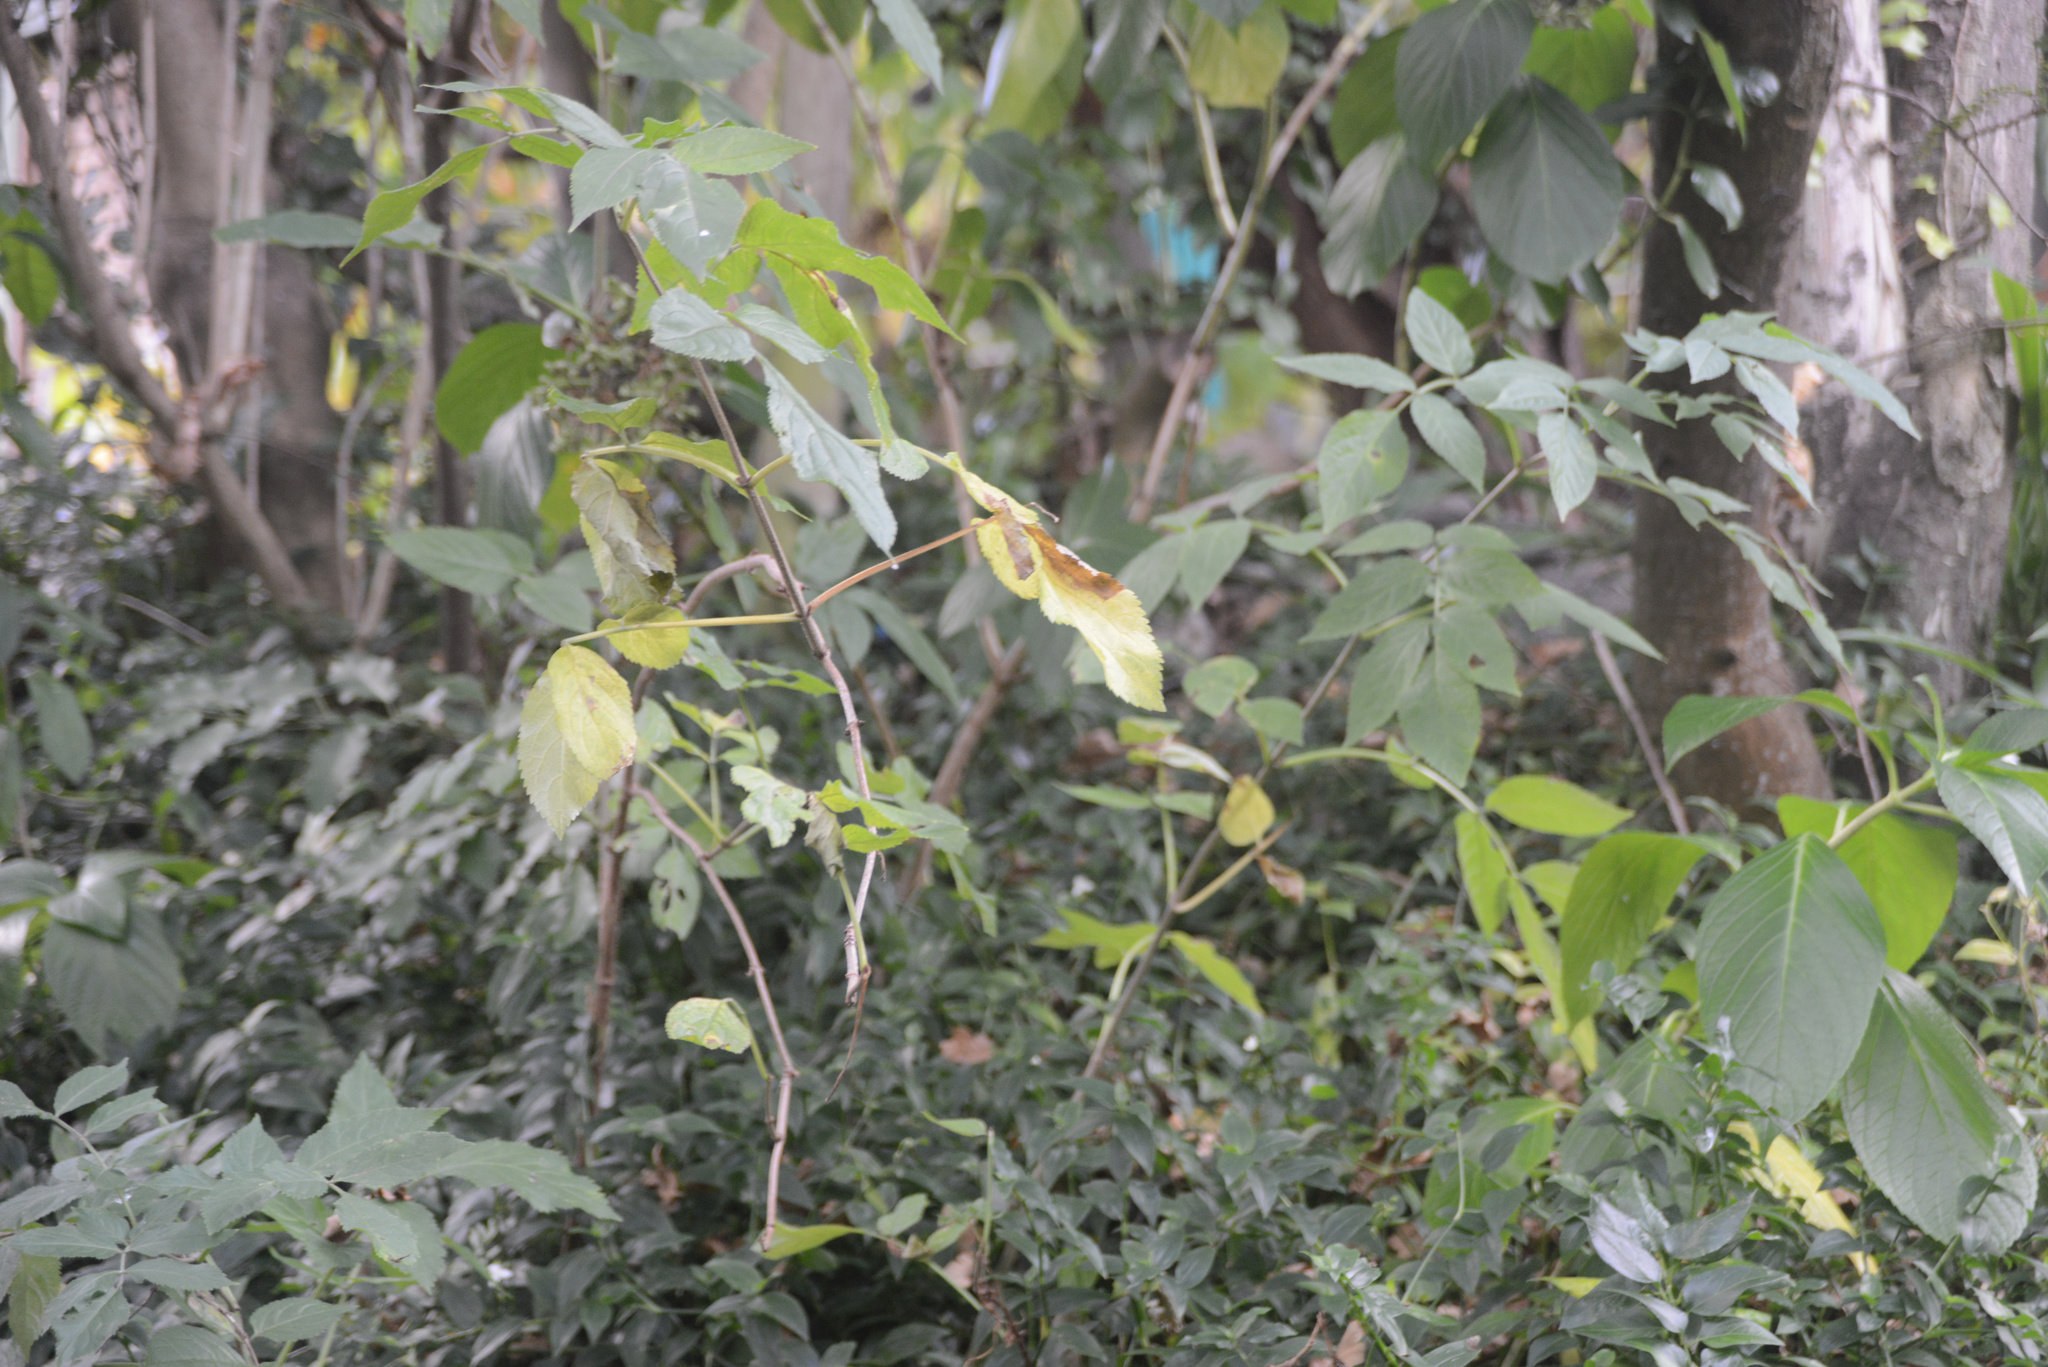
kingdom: Plantae
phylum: Tracheophyta
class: Magnoliopsida
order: Dipsacales
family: Viburnaceae
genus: Sambucus
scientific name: Sambucus nigra
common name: Elder
